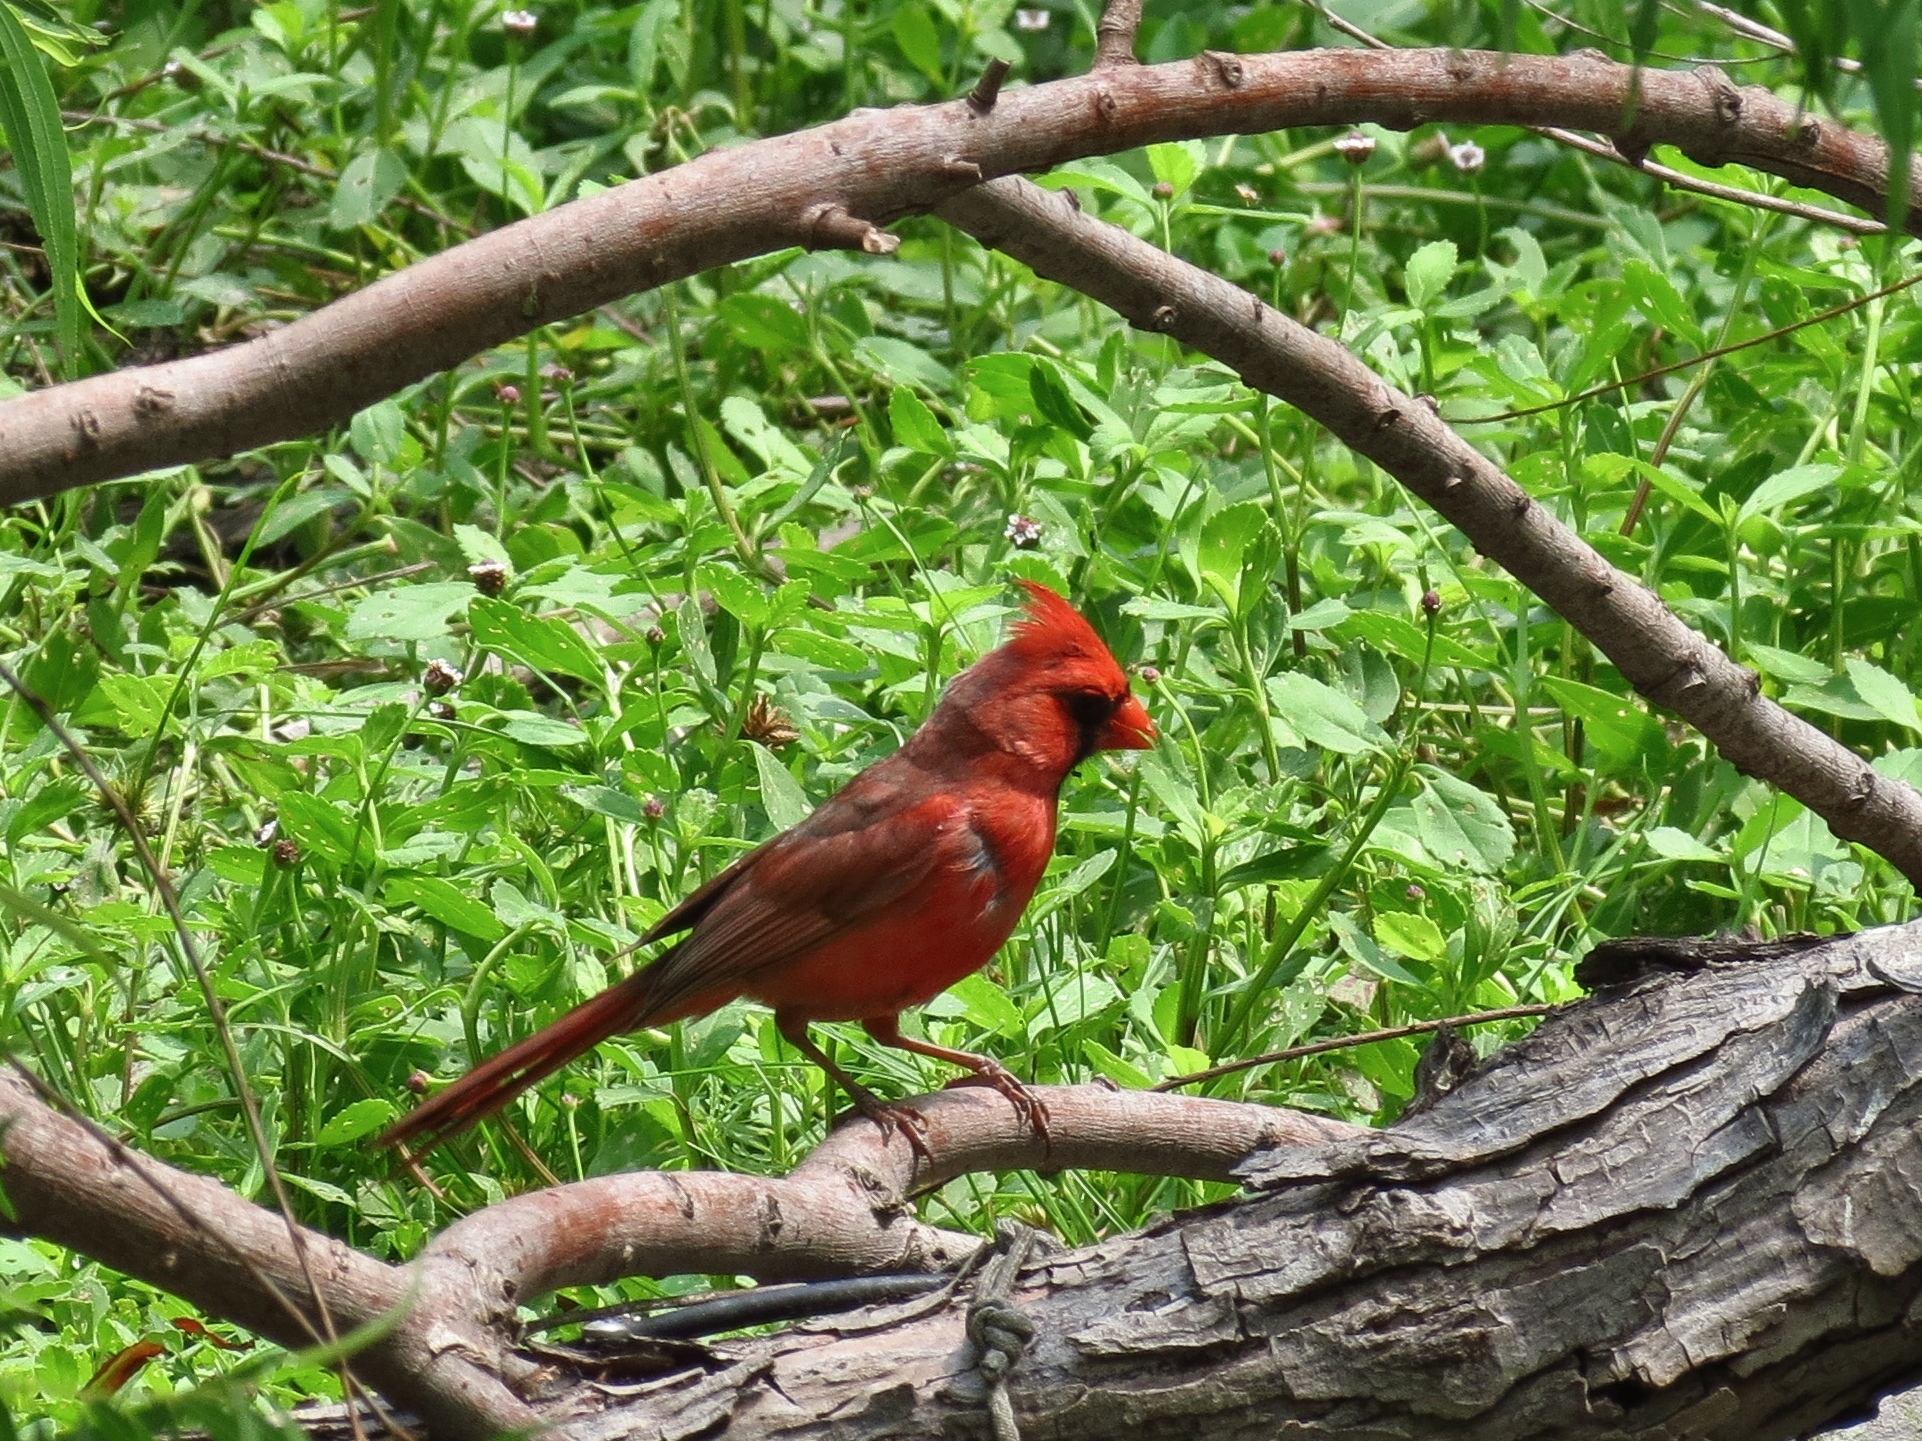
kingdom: Animalia
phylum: Chordata
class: Aves
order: Passeriformes
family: Cardinalidae
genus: Cardinalis
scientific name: Cardinalis cardinalis
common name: Northern cardinal
